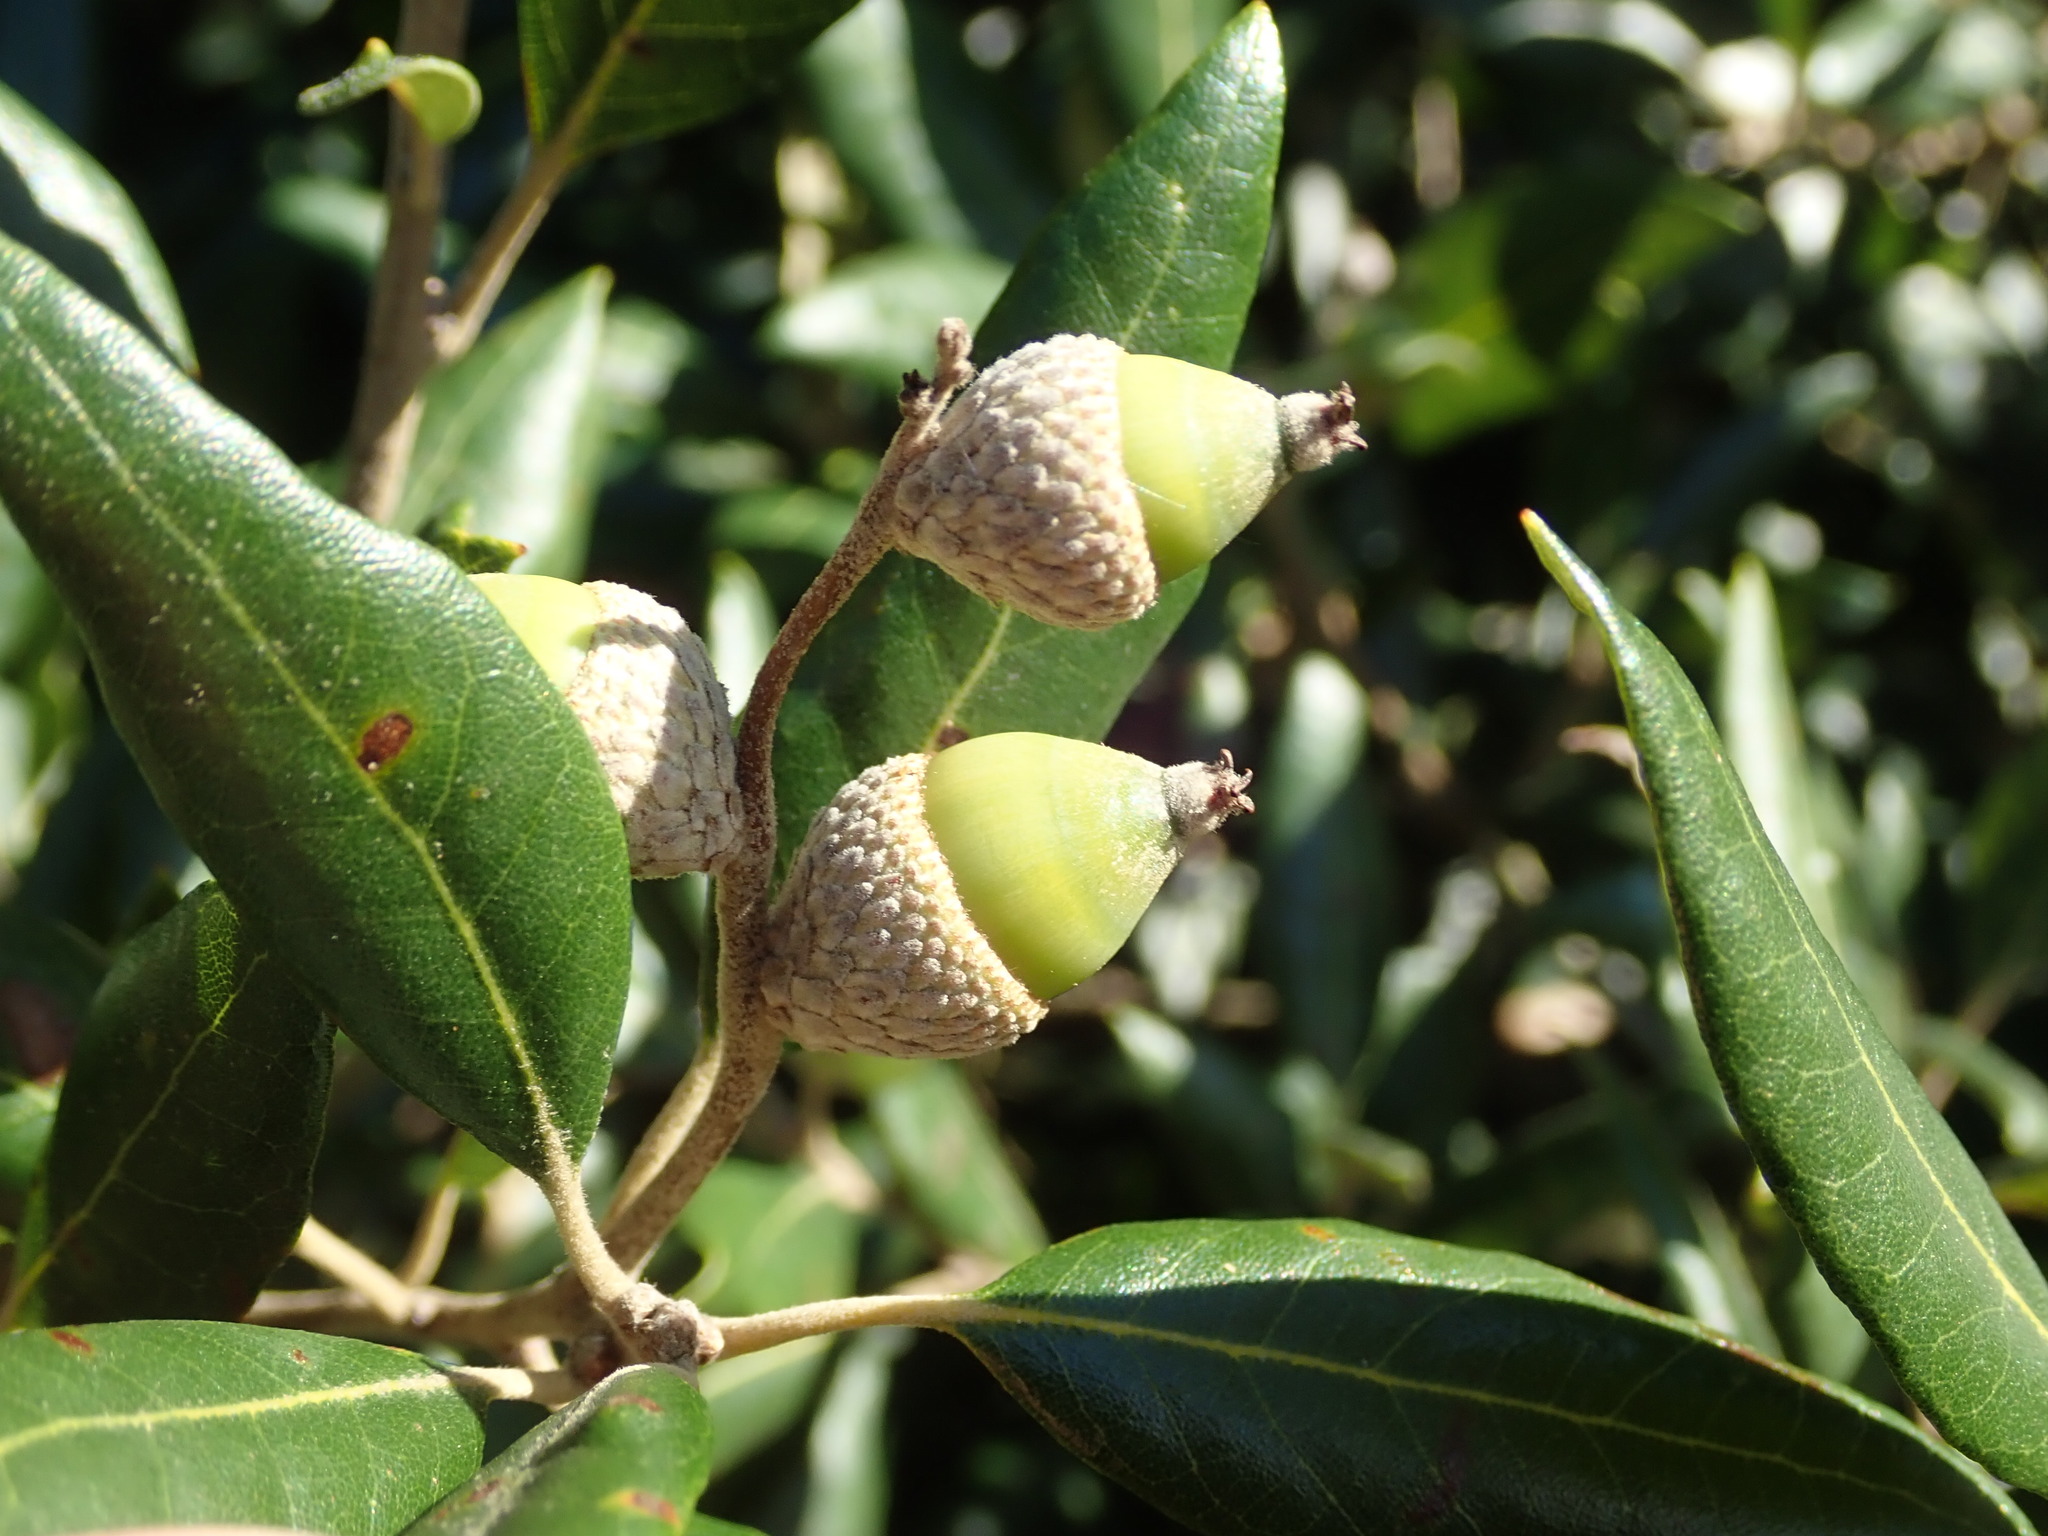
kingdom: Plantae
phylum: Tracheophyta
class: Magnoliopsida
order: Fagales
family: Fagaceae
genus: Quercus
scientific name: Quercus ilex
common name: Evergreen oak
